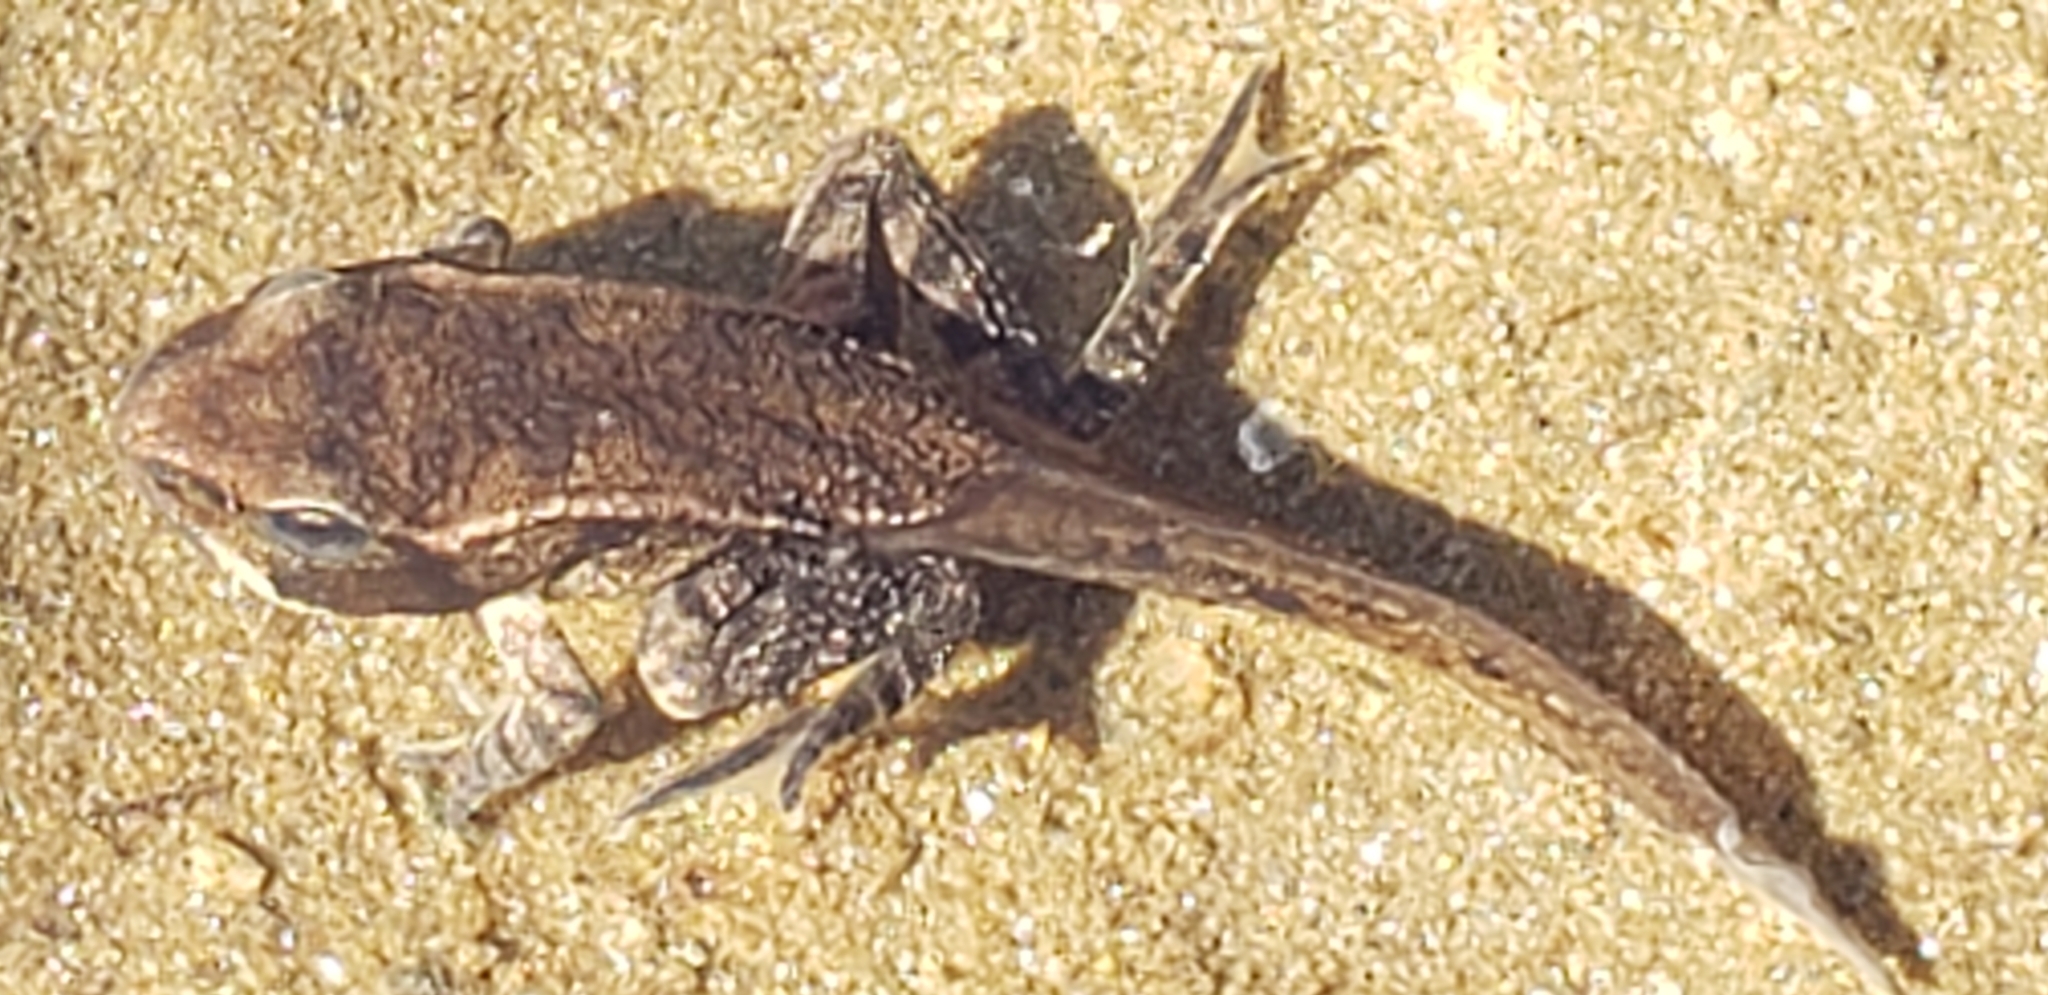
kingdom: Animalia
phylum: Chordata
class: Amphibia
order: Anura
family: Ranidae
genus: Lithobates
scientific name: Lithobates sylvaticus
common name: Wood frog
